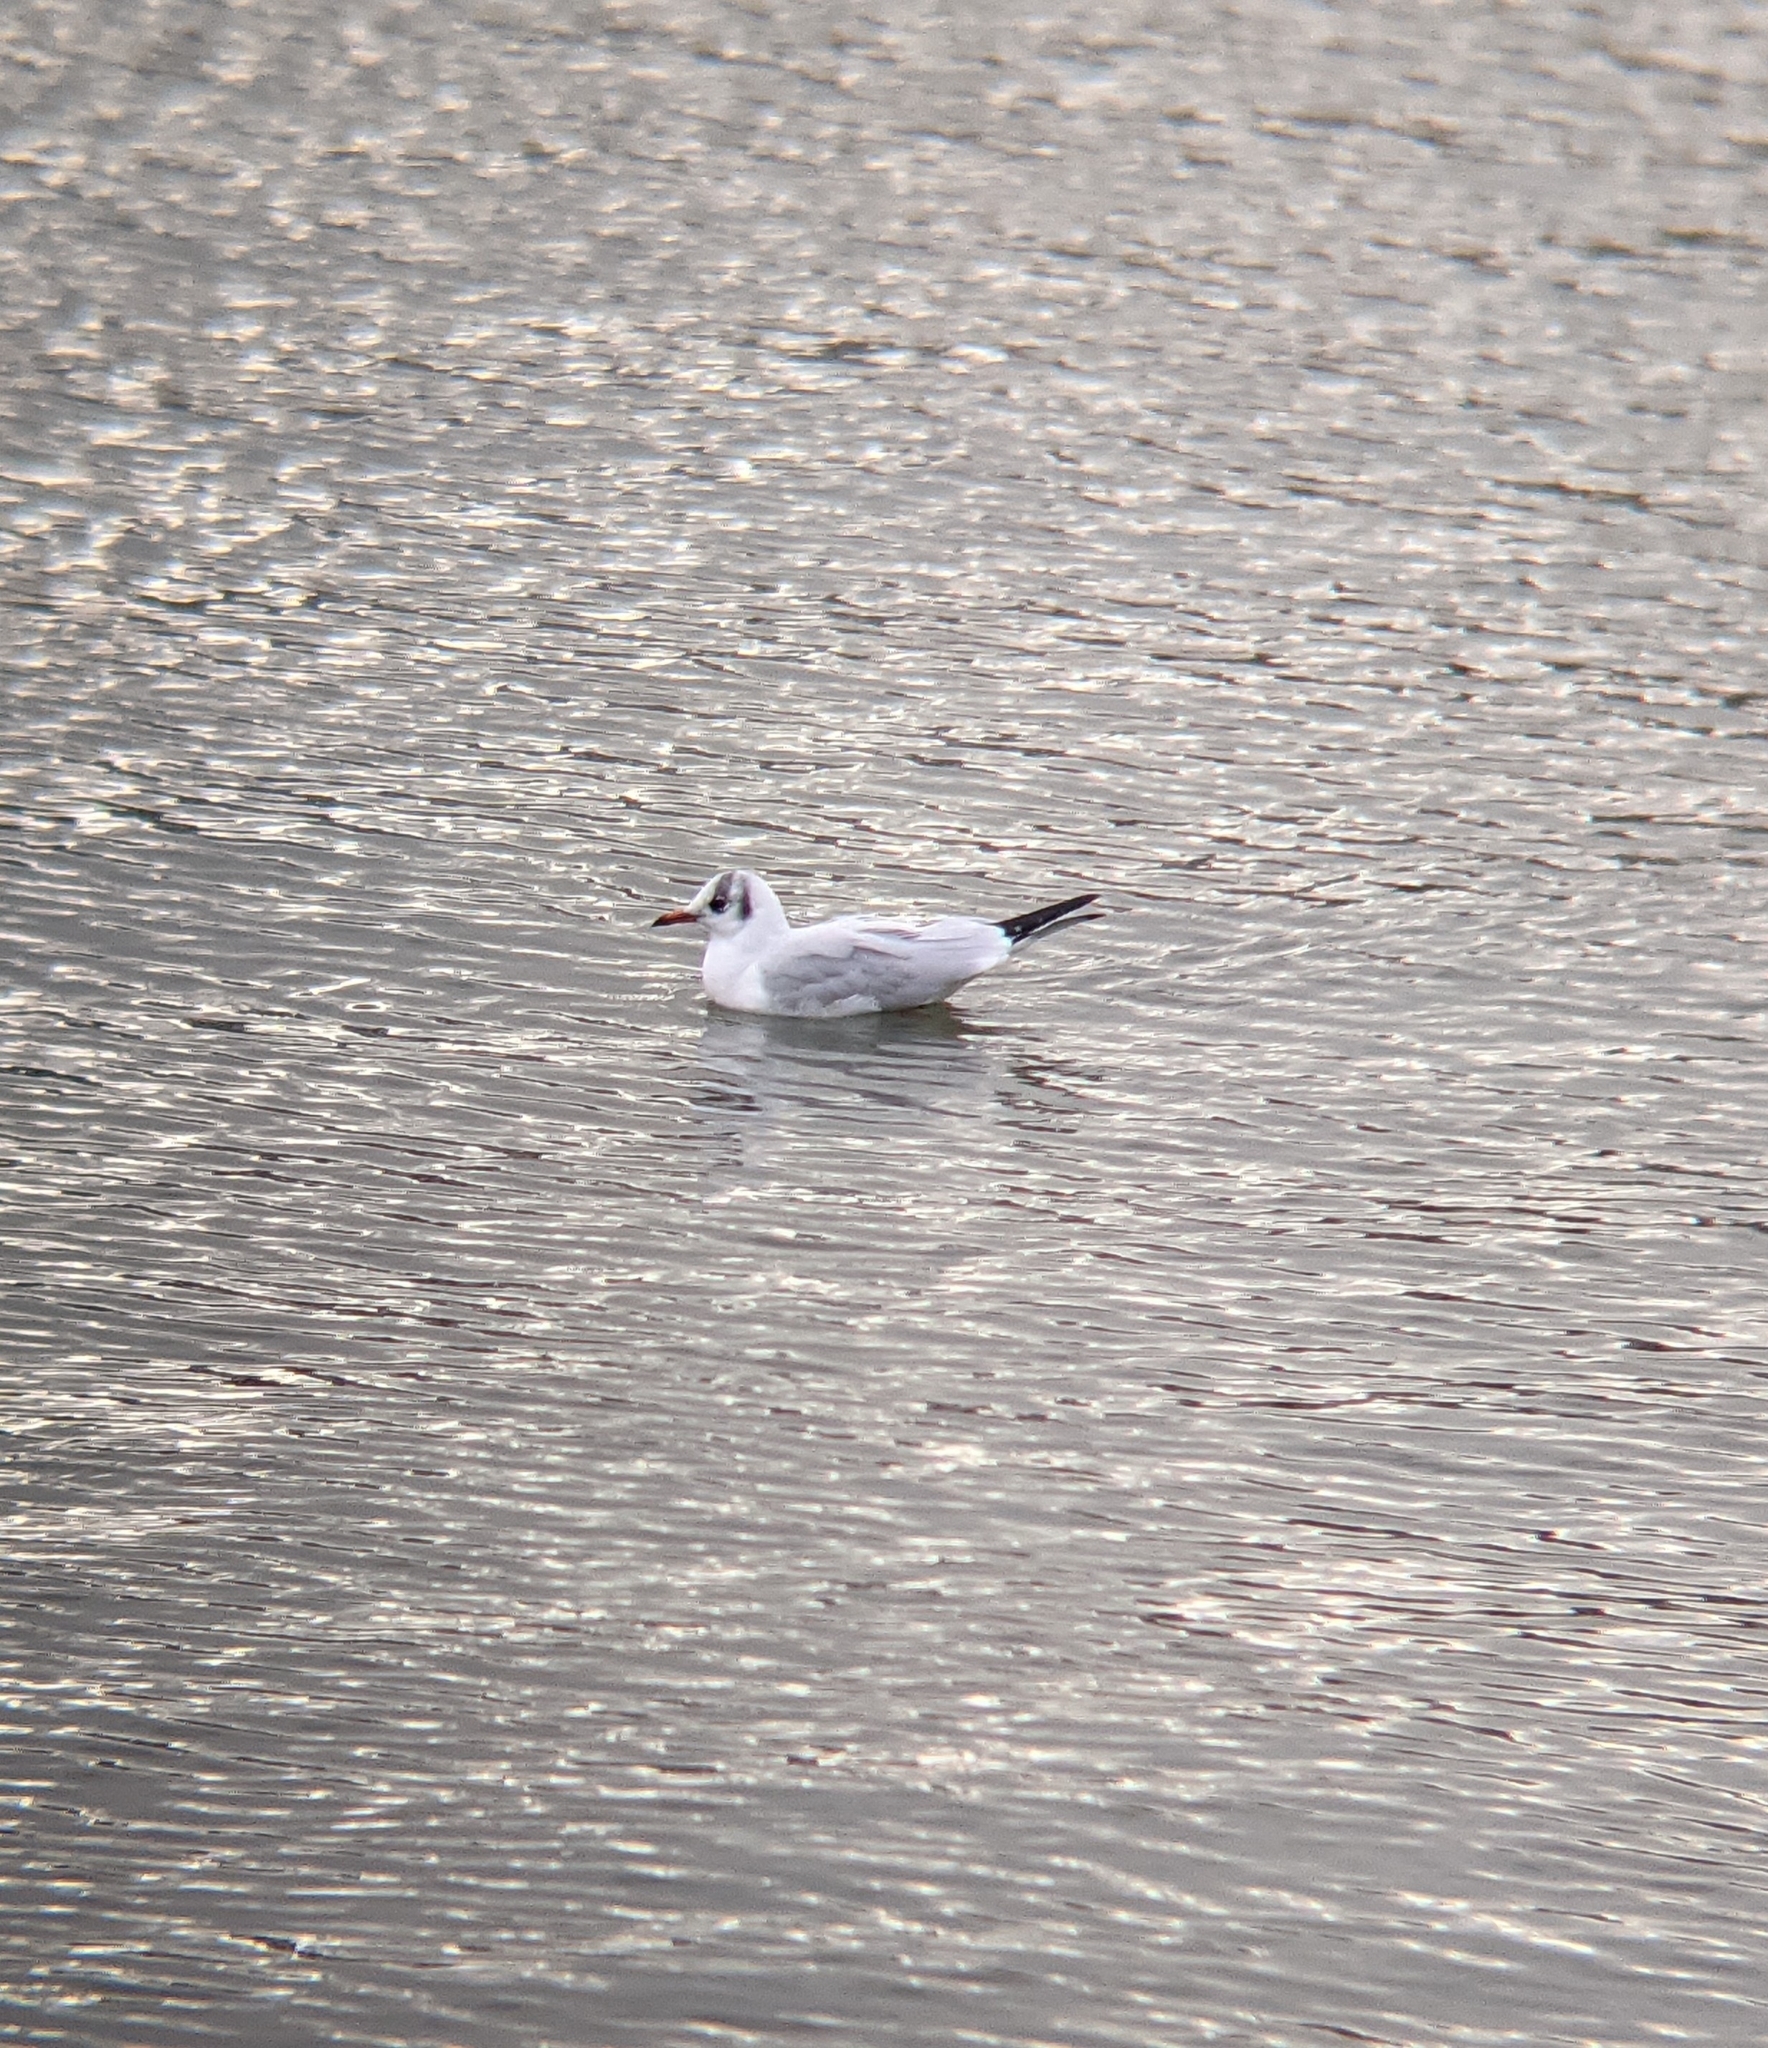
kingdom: Animalia
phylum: Chordata
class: Aves
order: Charadriiformes
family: Laridae
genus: Chroicocephalus
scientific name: Chroicocephalus ridibundus
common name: Black-headed gull
